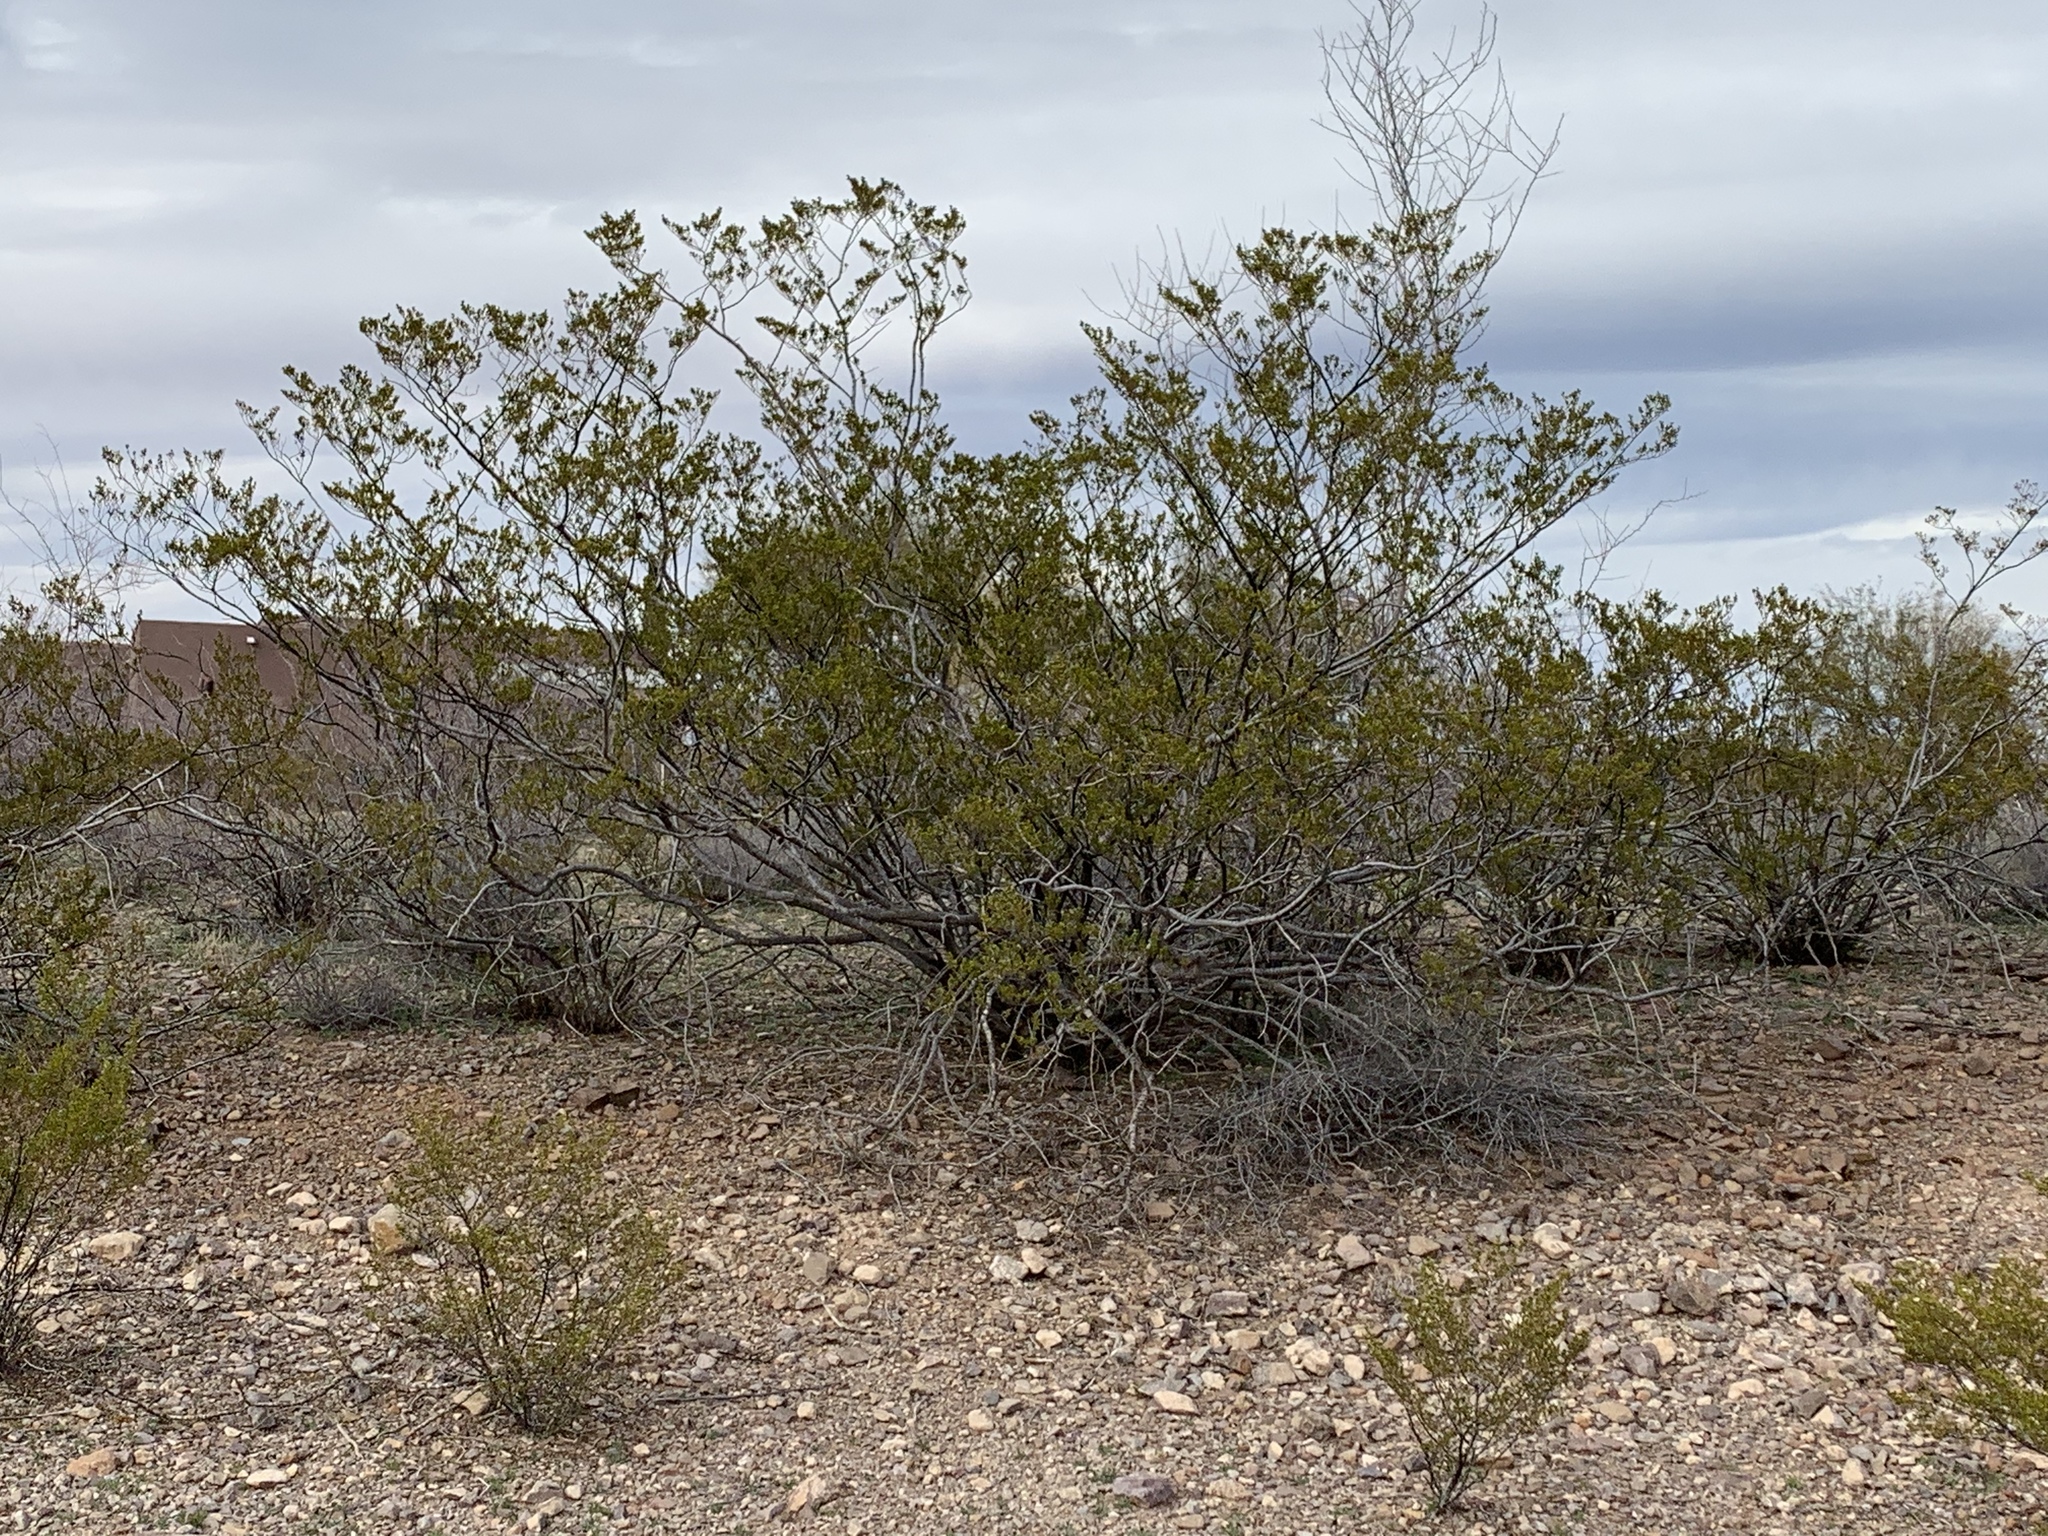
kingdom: Plantae
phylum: Tracheophyta
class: Magnoliopsida
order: Zygophyllales
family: Zygophyllaceae
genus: Larrea
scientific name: Larrea tridentata
